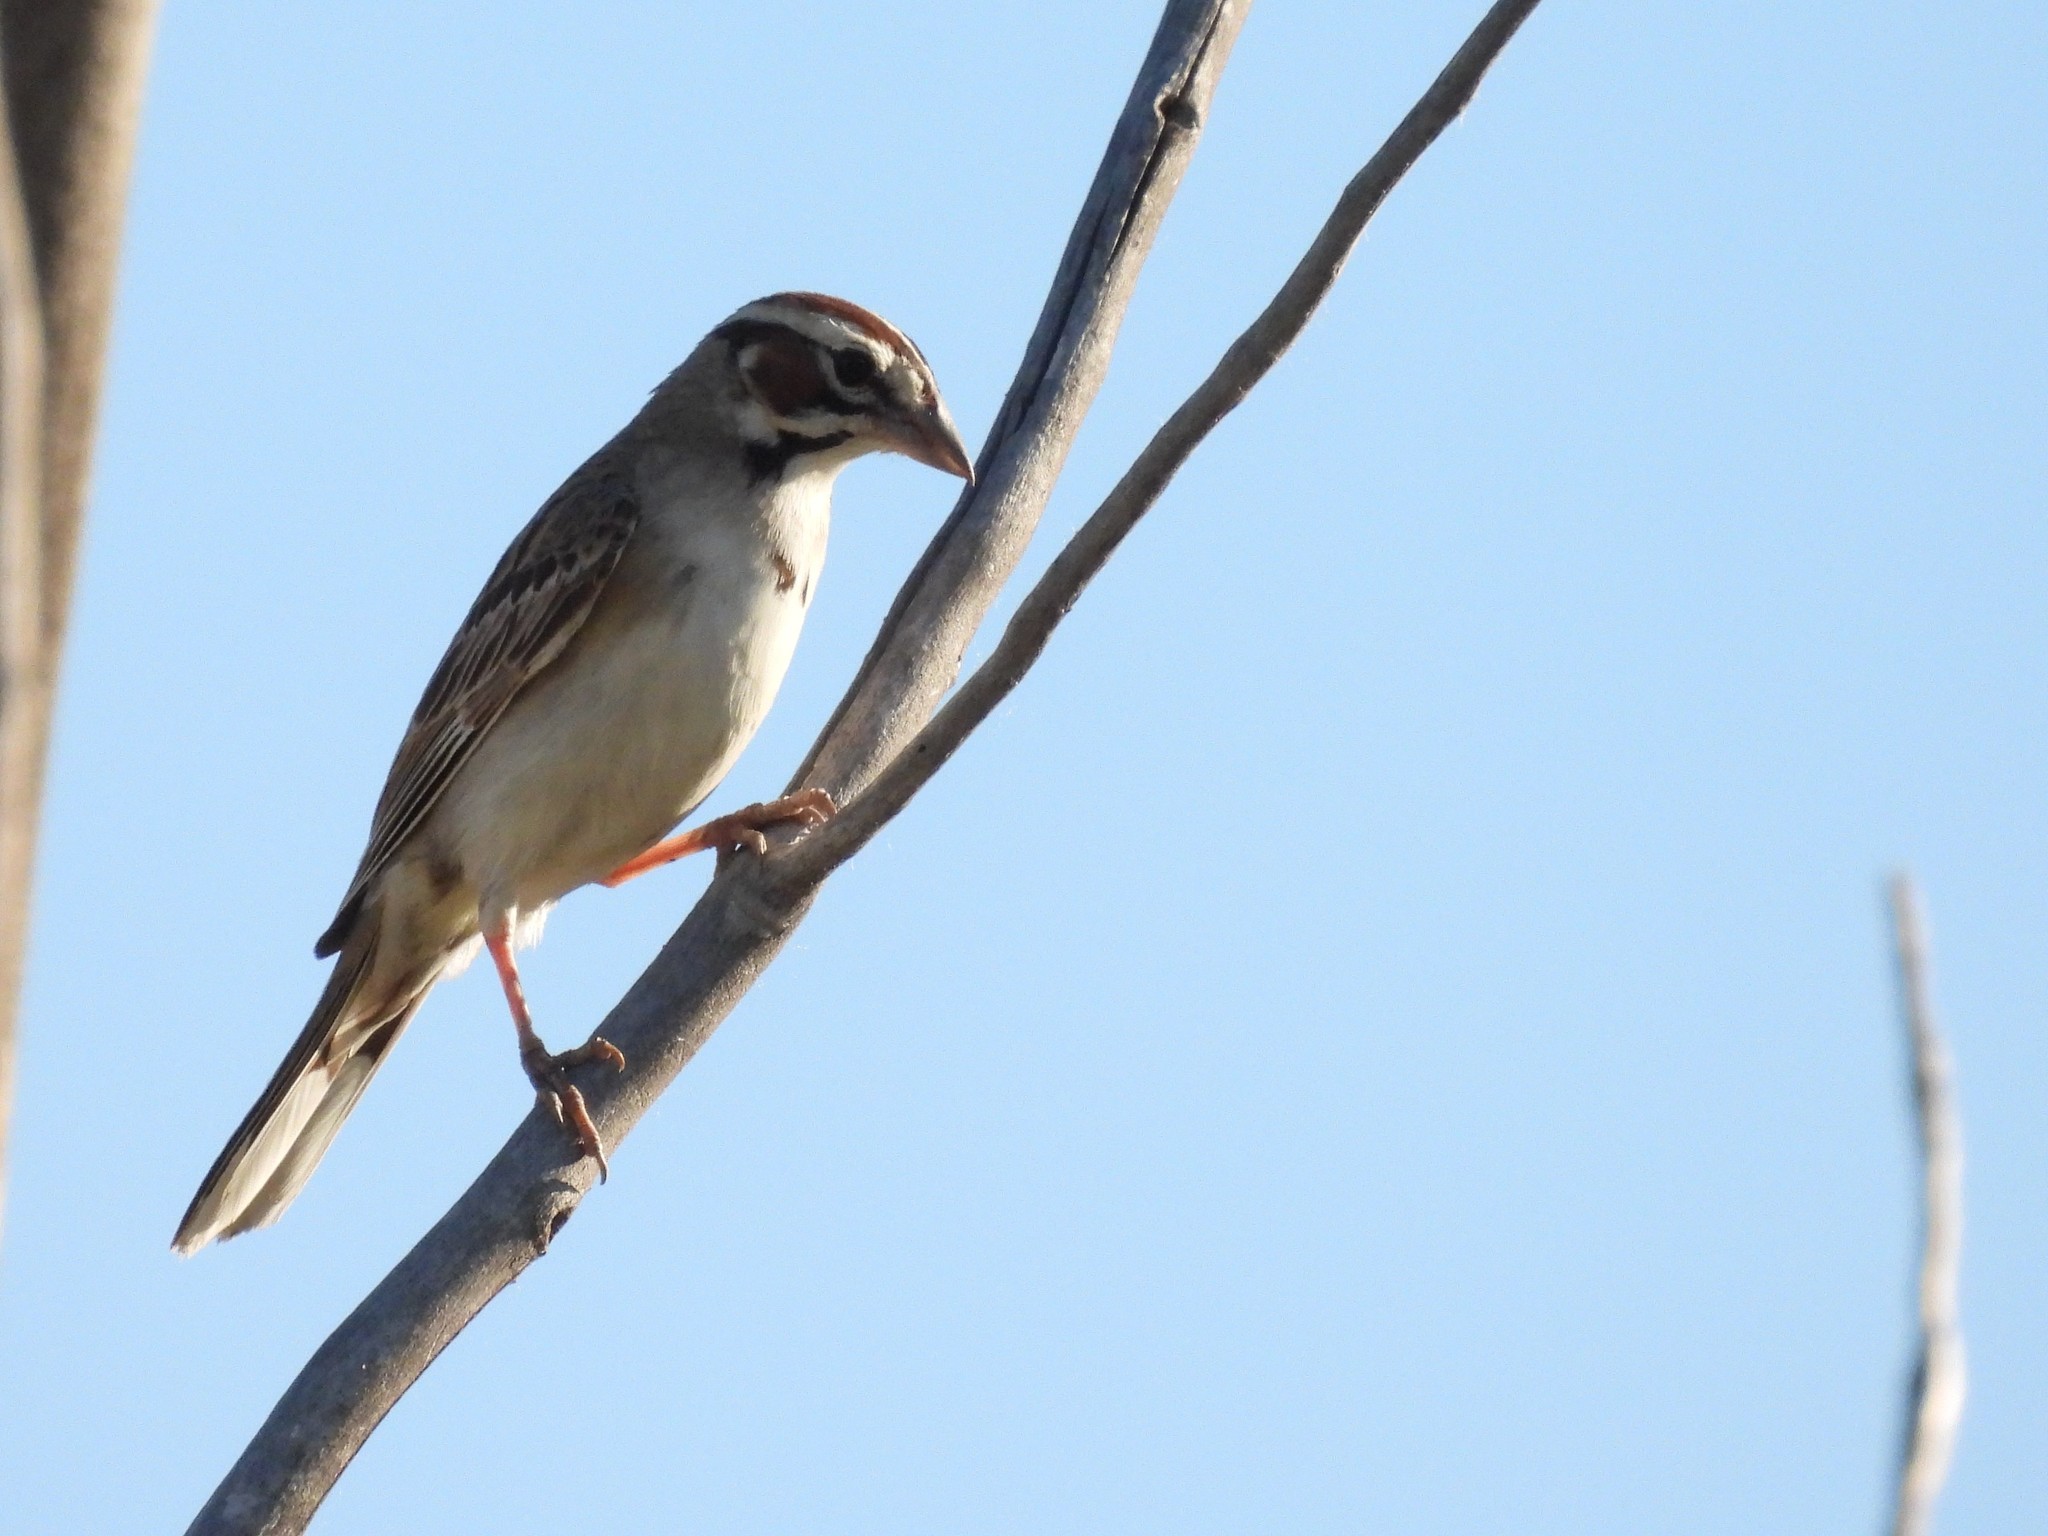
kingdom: Animalia
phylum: Chordata
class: Aves
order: Passeriformes
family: Passerellidae
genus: Chondestes
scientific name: Chondestes grammacus
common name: Lark sparrow
